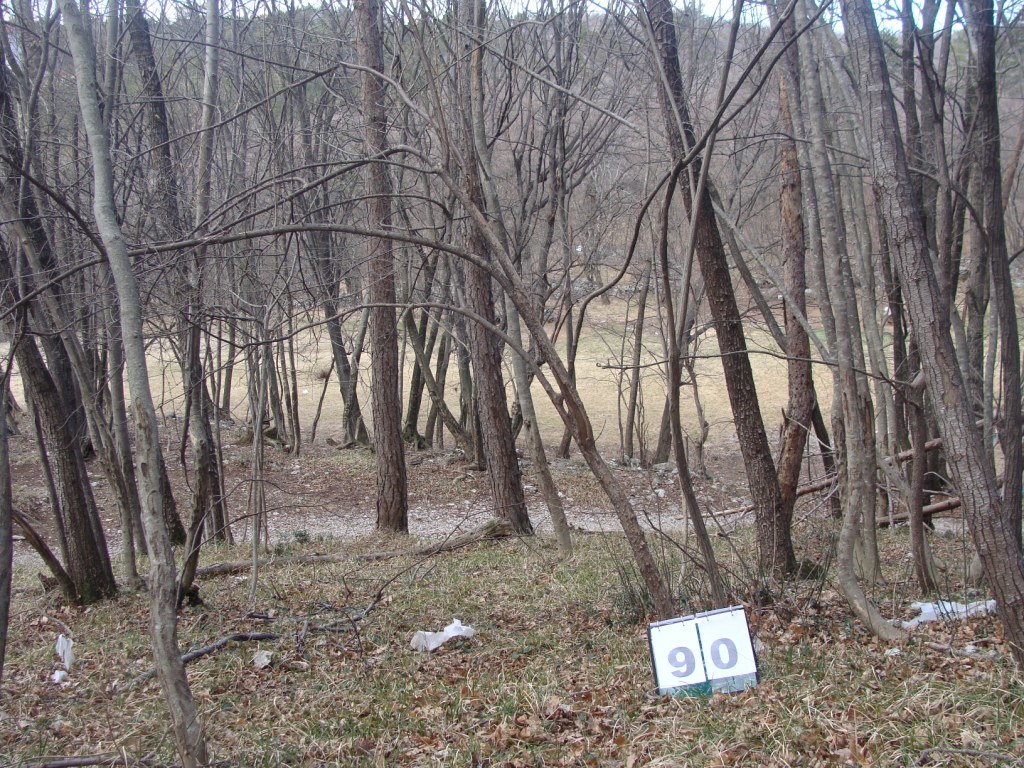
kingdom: Plantae
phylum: Tracheophyta
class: Magnoliopsida
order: Cornales
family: Cornaceae
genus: Cornus
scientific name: Cornus mas
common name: Cornelian-cherry
